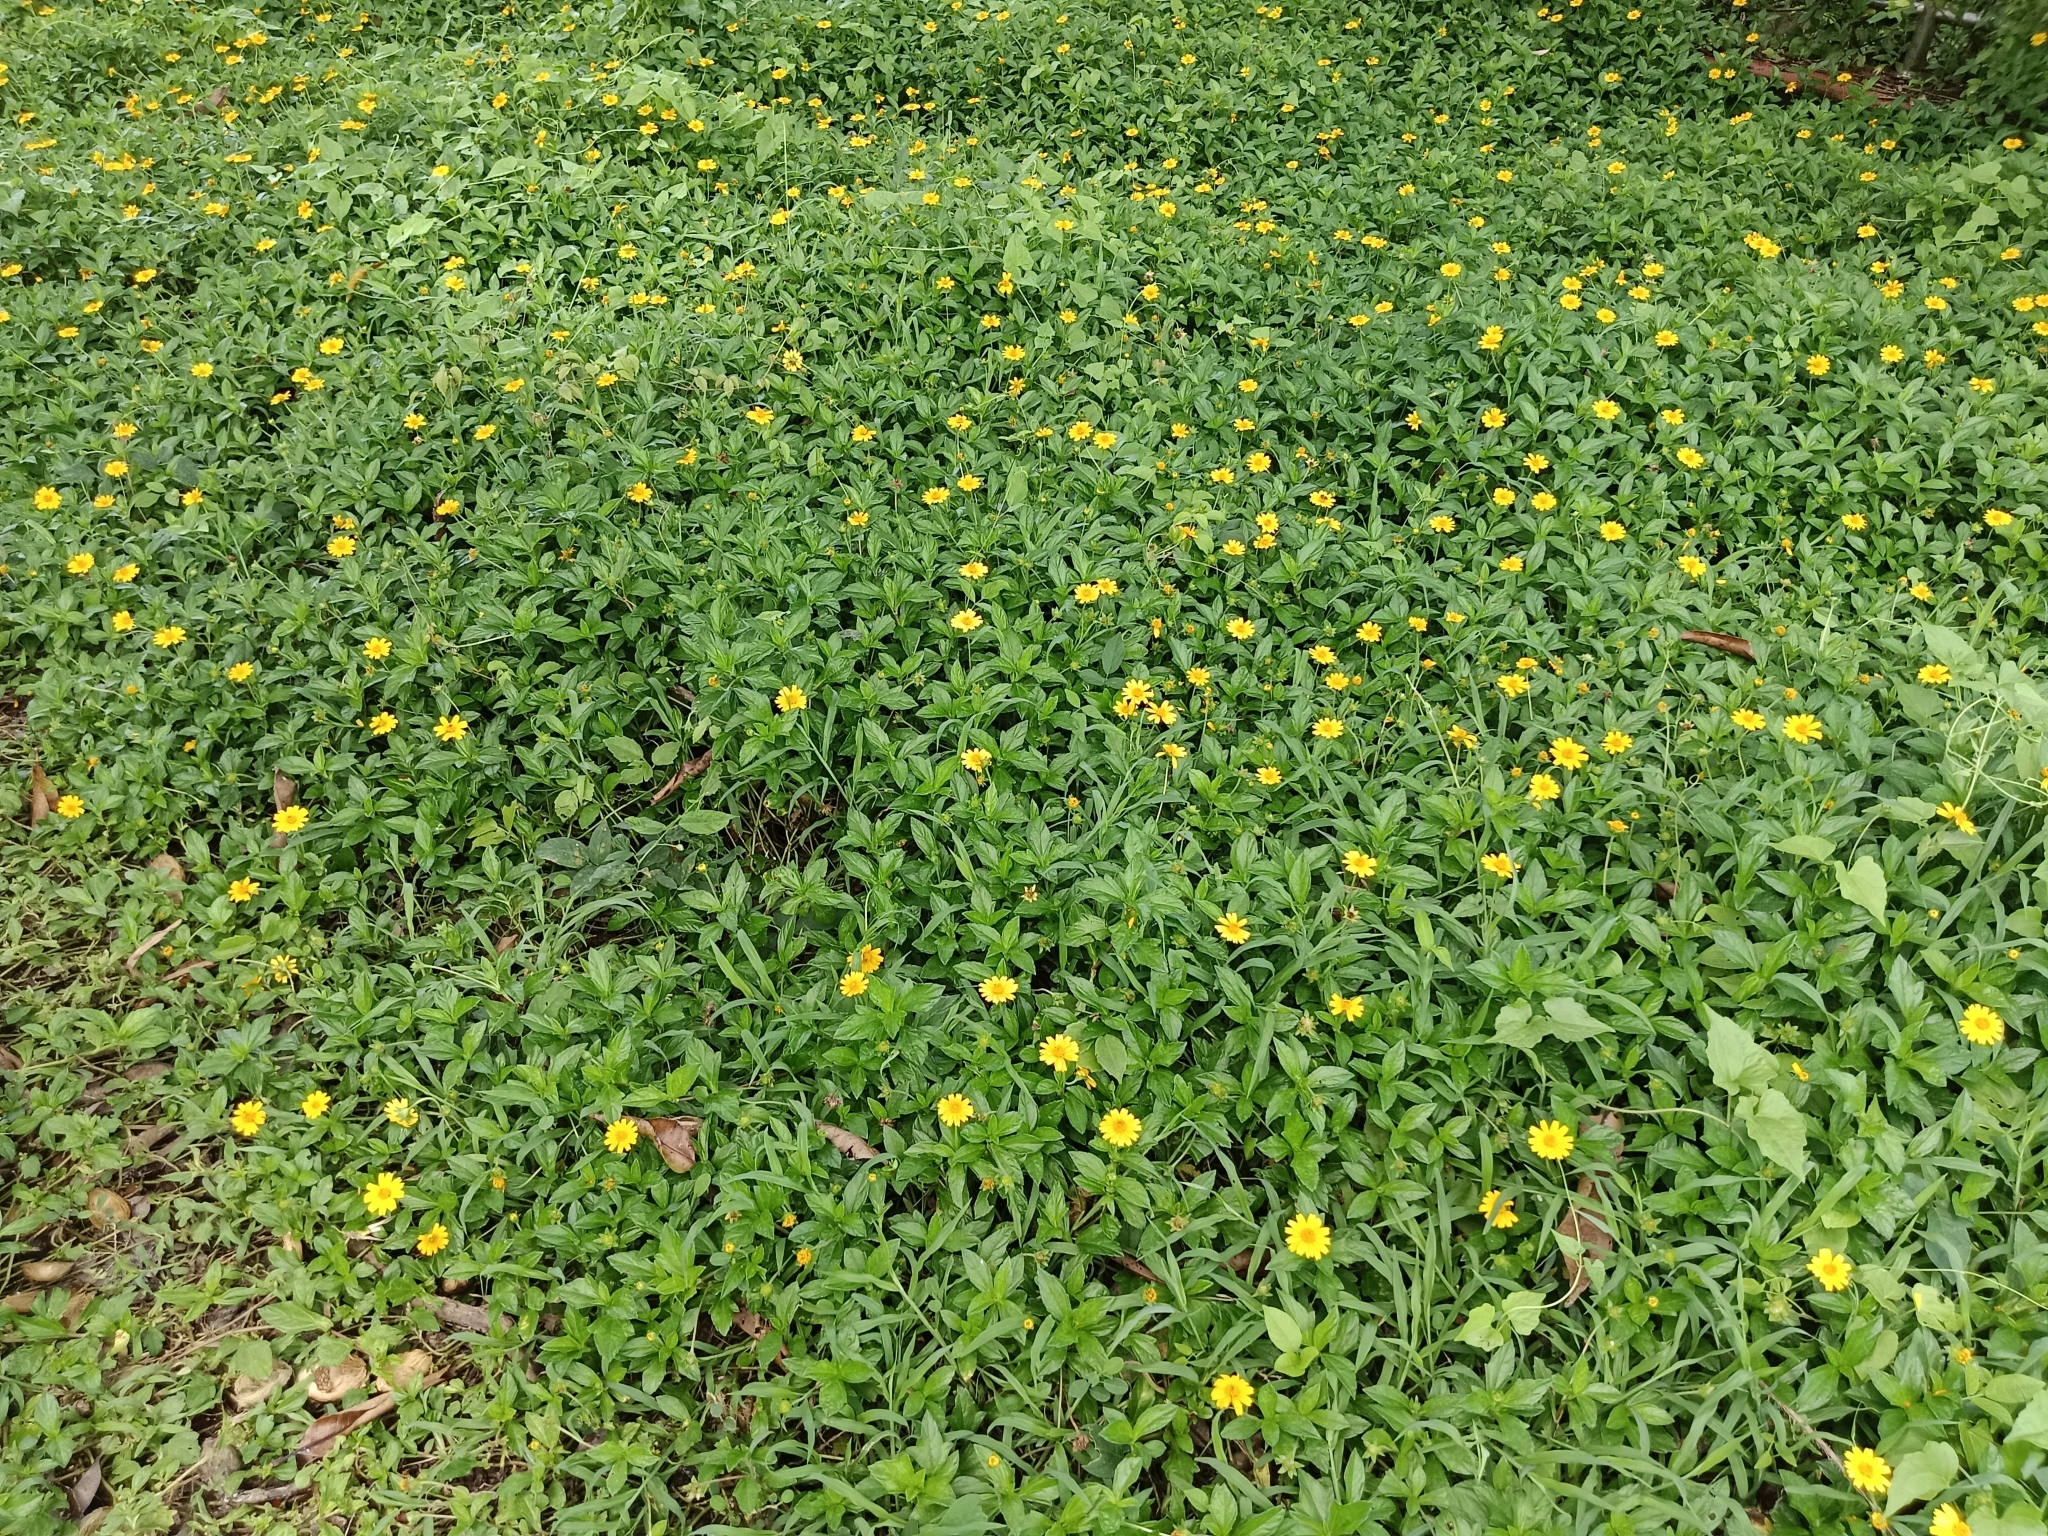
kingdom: Plantae
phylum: Tracheophyta
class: Magnoliopsida
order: Asterales
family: Asteraceae
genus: Sphagneticola
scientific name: Sphagneticola trilobata
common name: Bay biscayne creeping-oxeye
